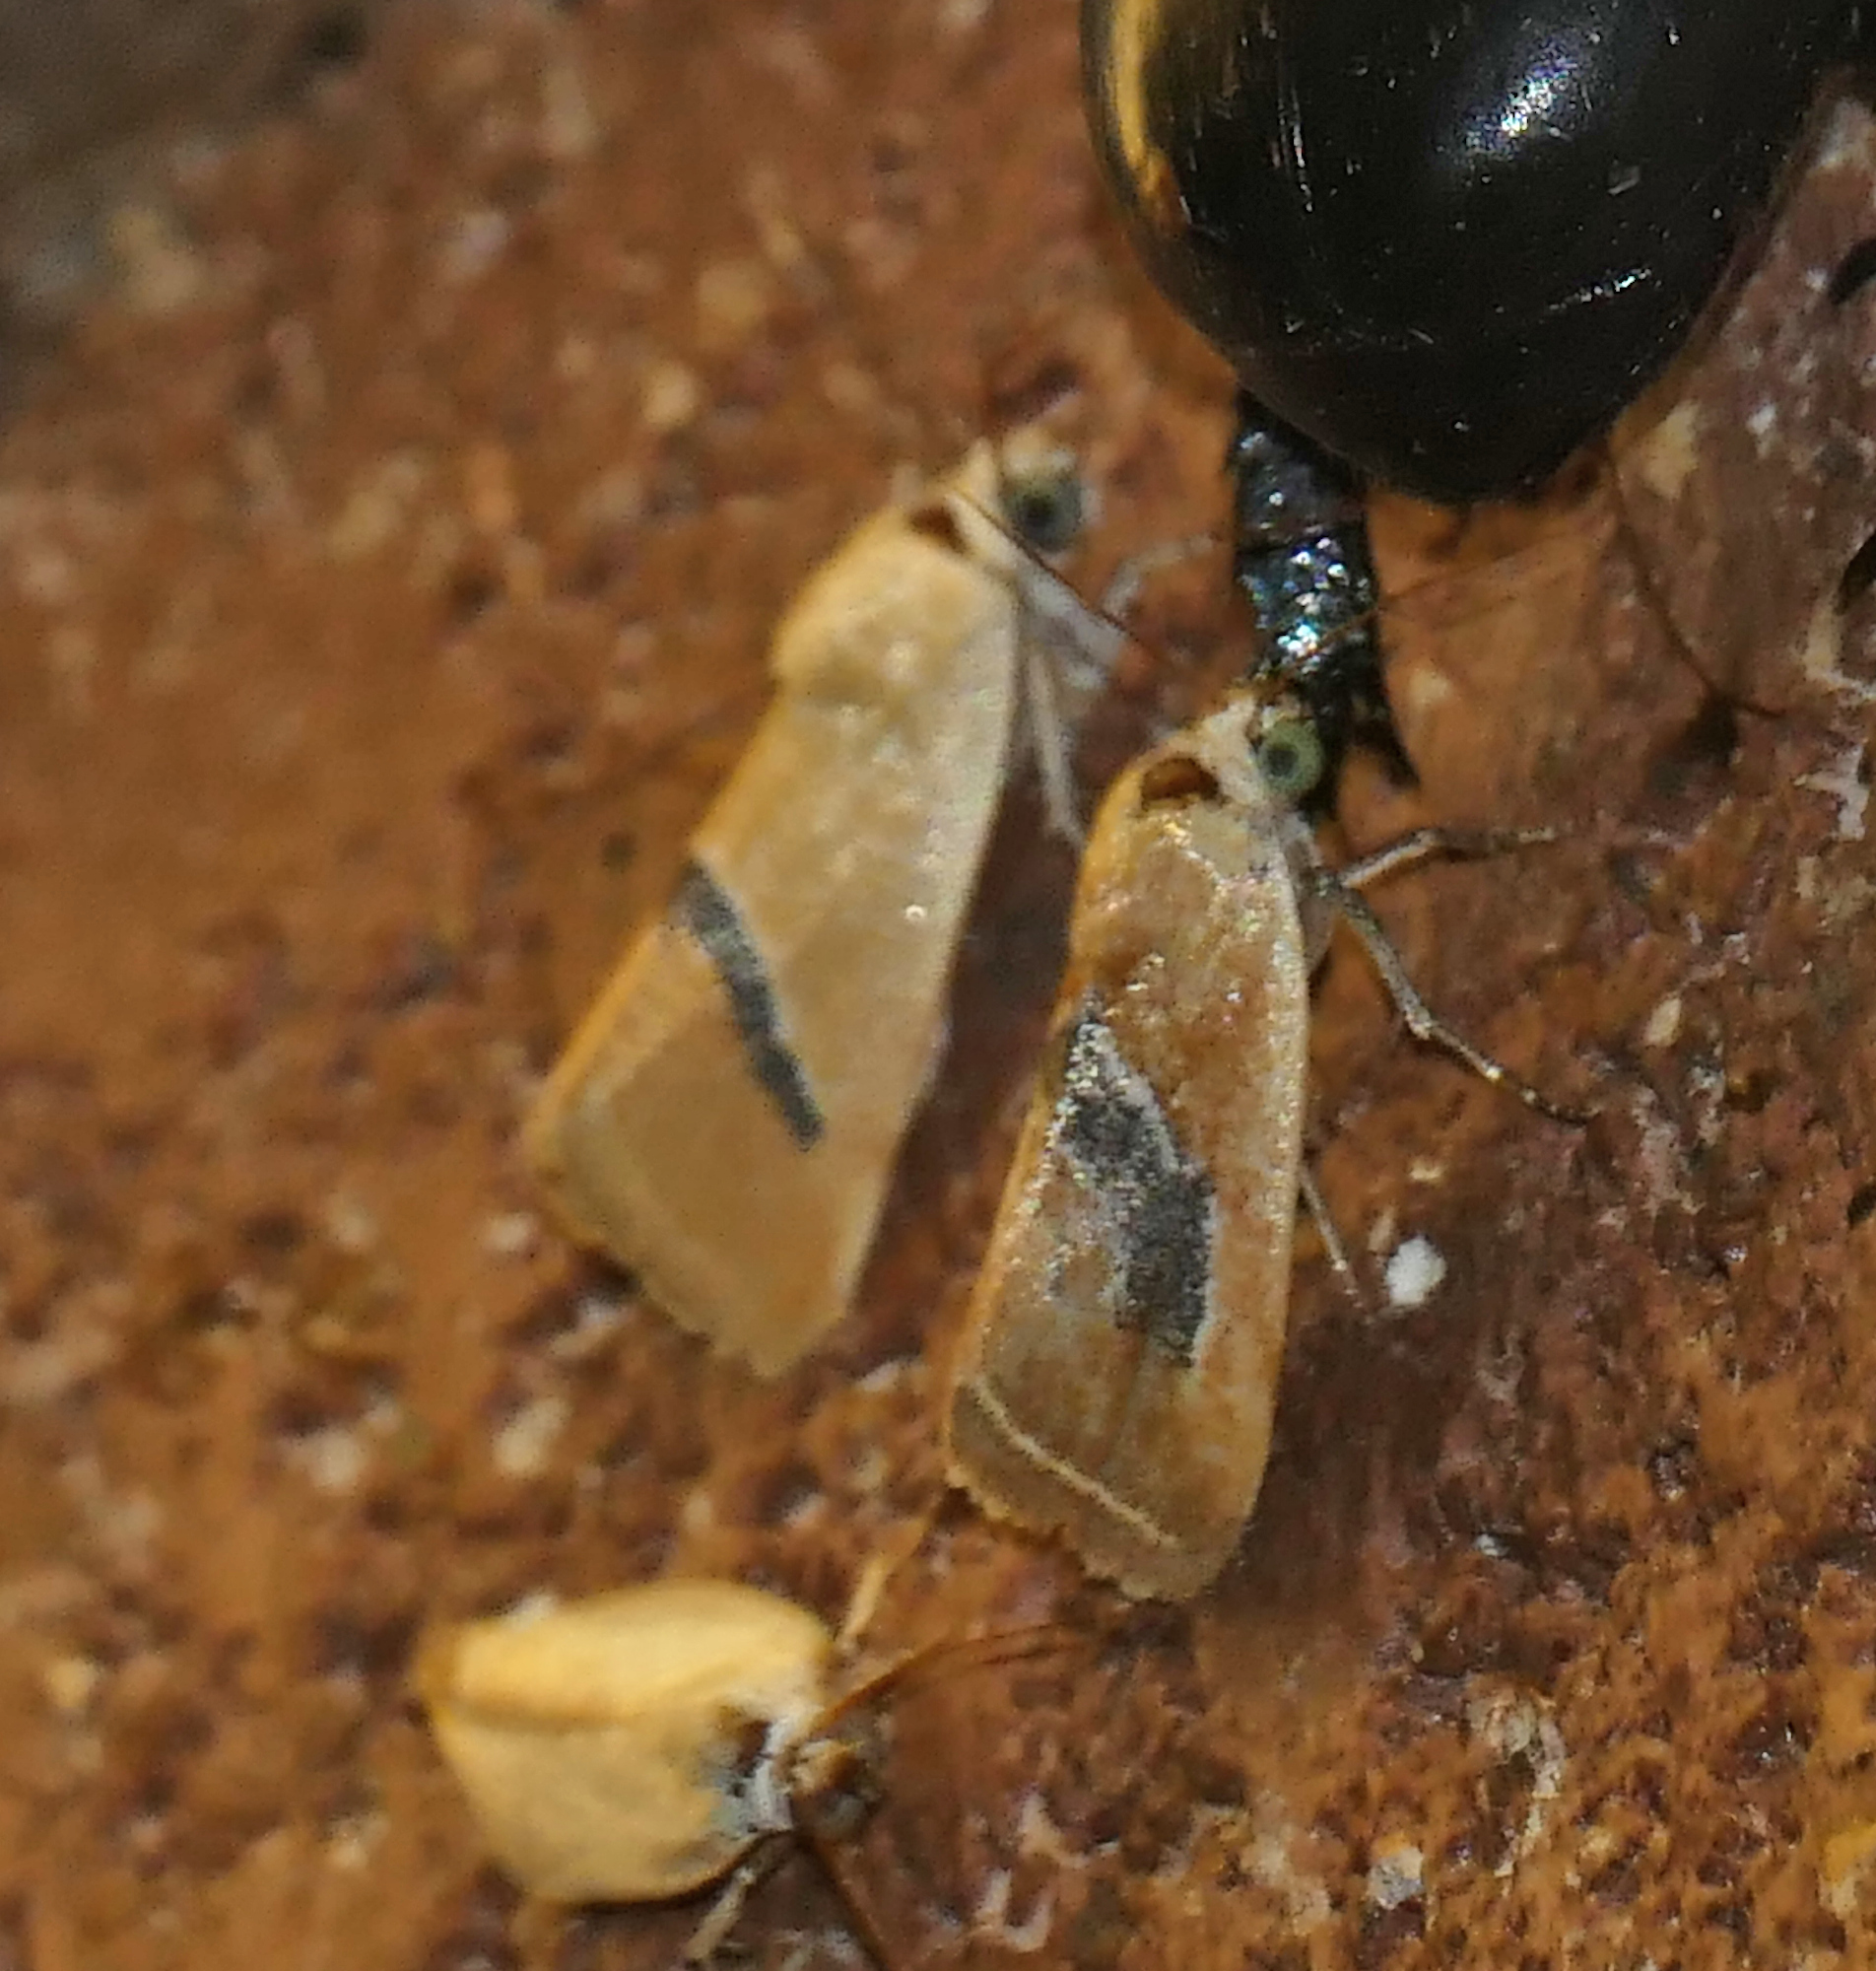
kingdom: Animalia
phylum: Arthropoda
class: Insecta
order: Lepidoptera
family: Noctuidae
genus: Ponometia
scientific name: Ponometia venustula
